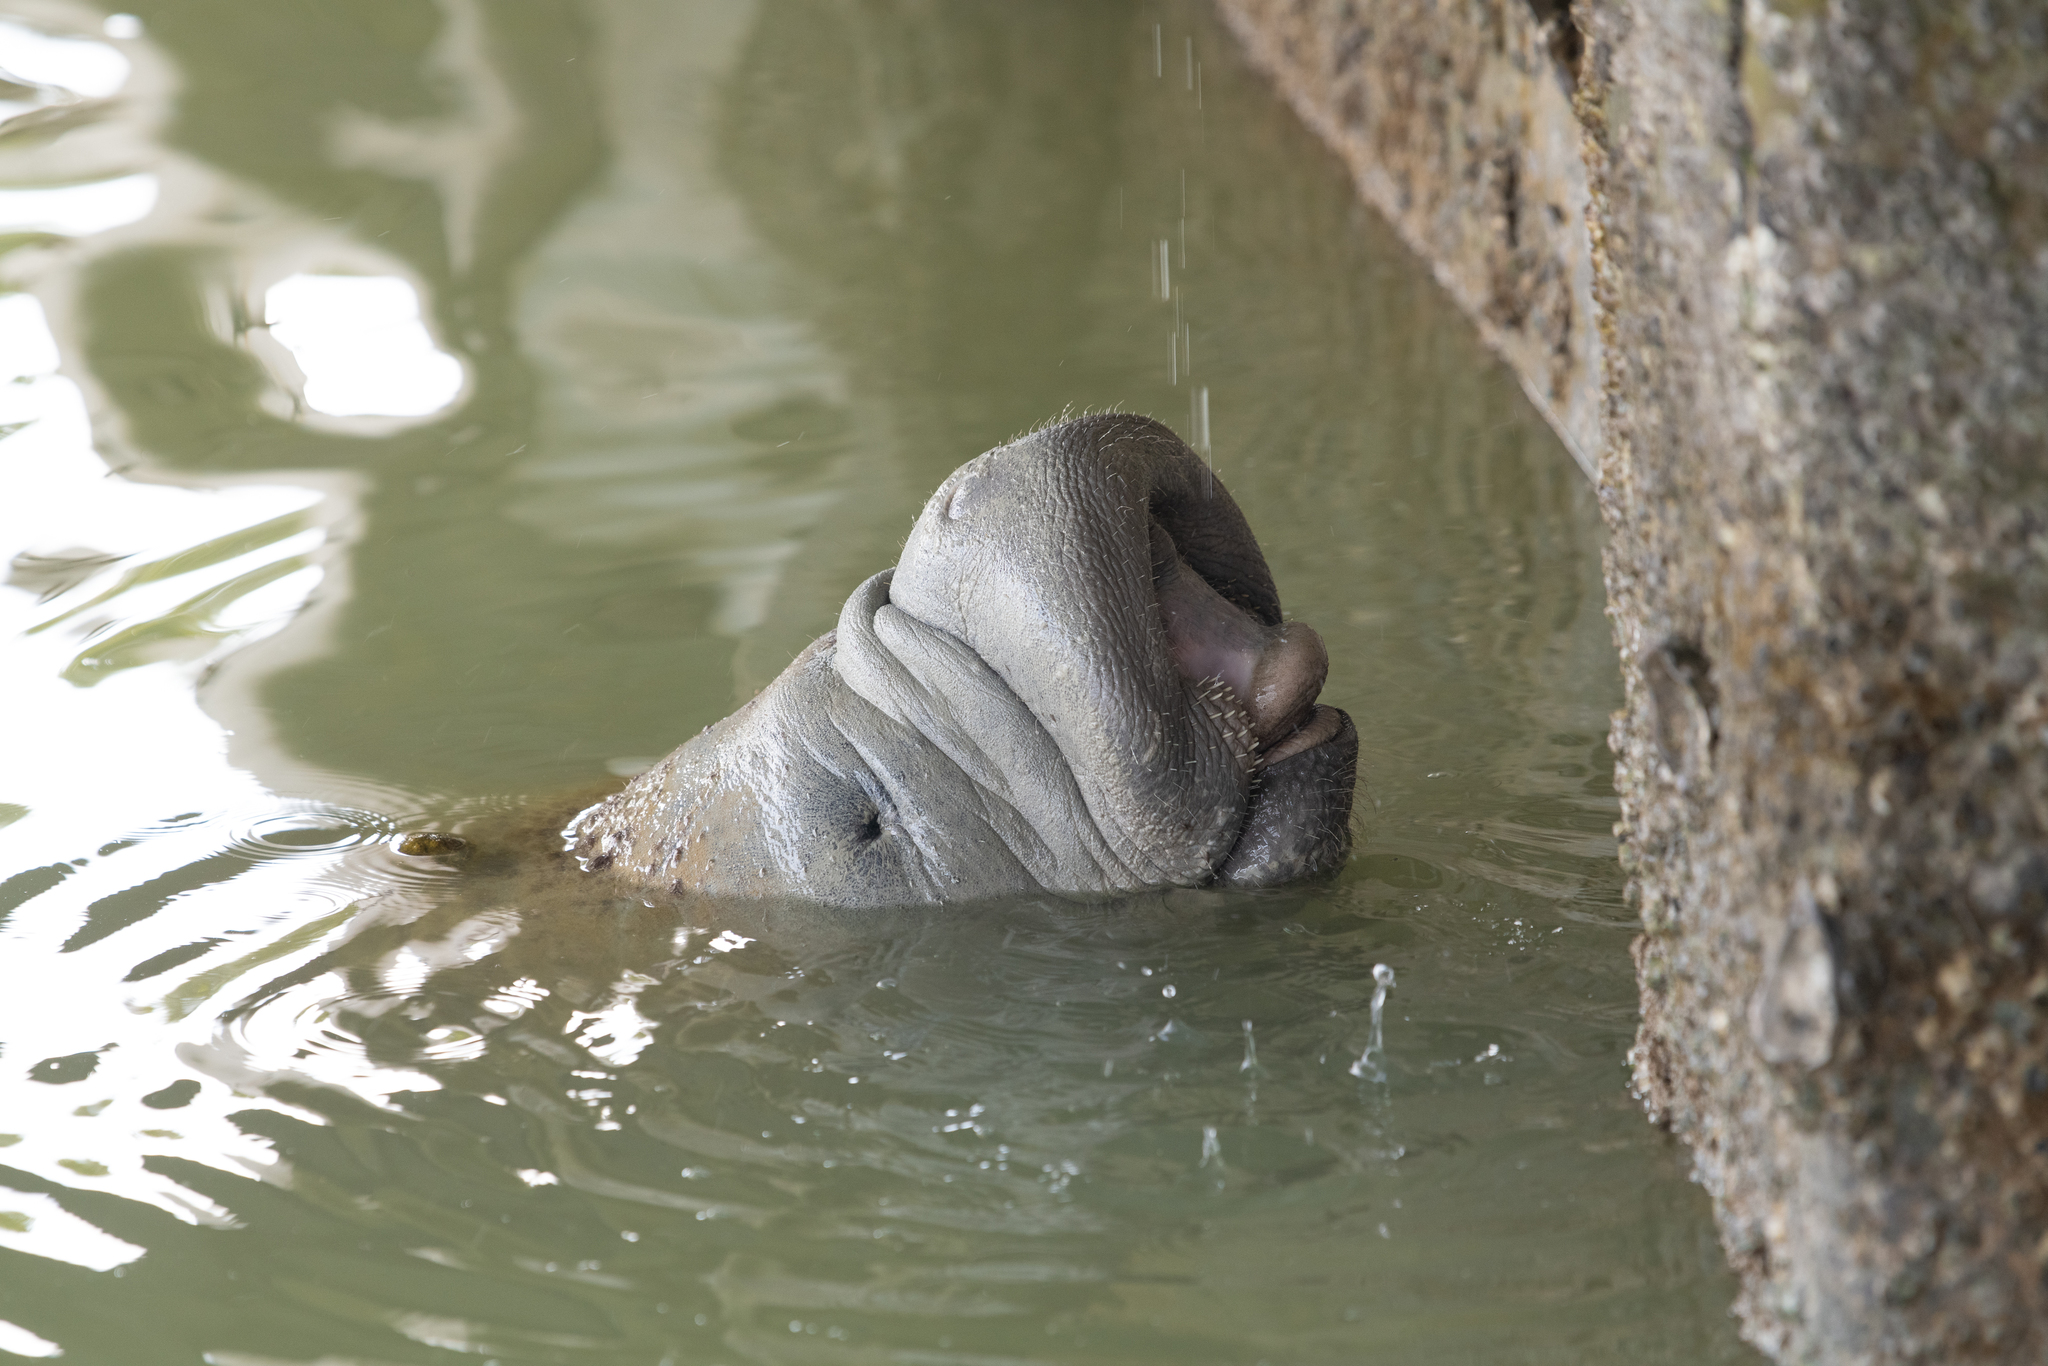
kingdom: Animalia
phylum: Chordata
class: Mammalia
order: Sirenia
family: Trichechidae
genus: Trichechus
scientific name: Trichechus manatus
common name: West indian manatee
